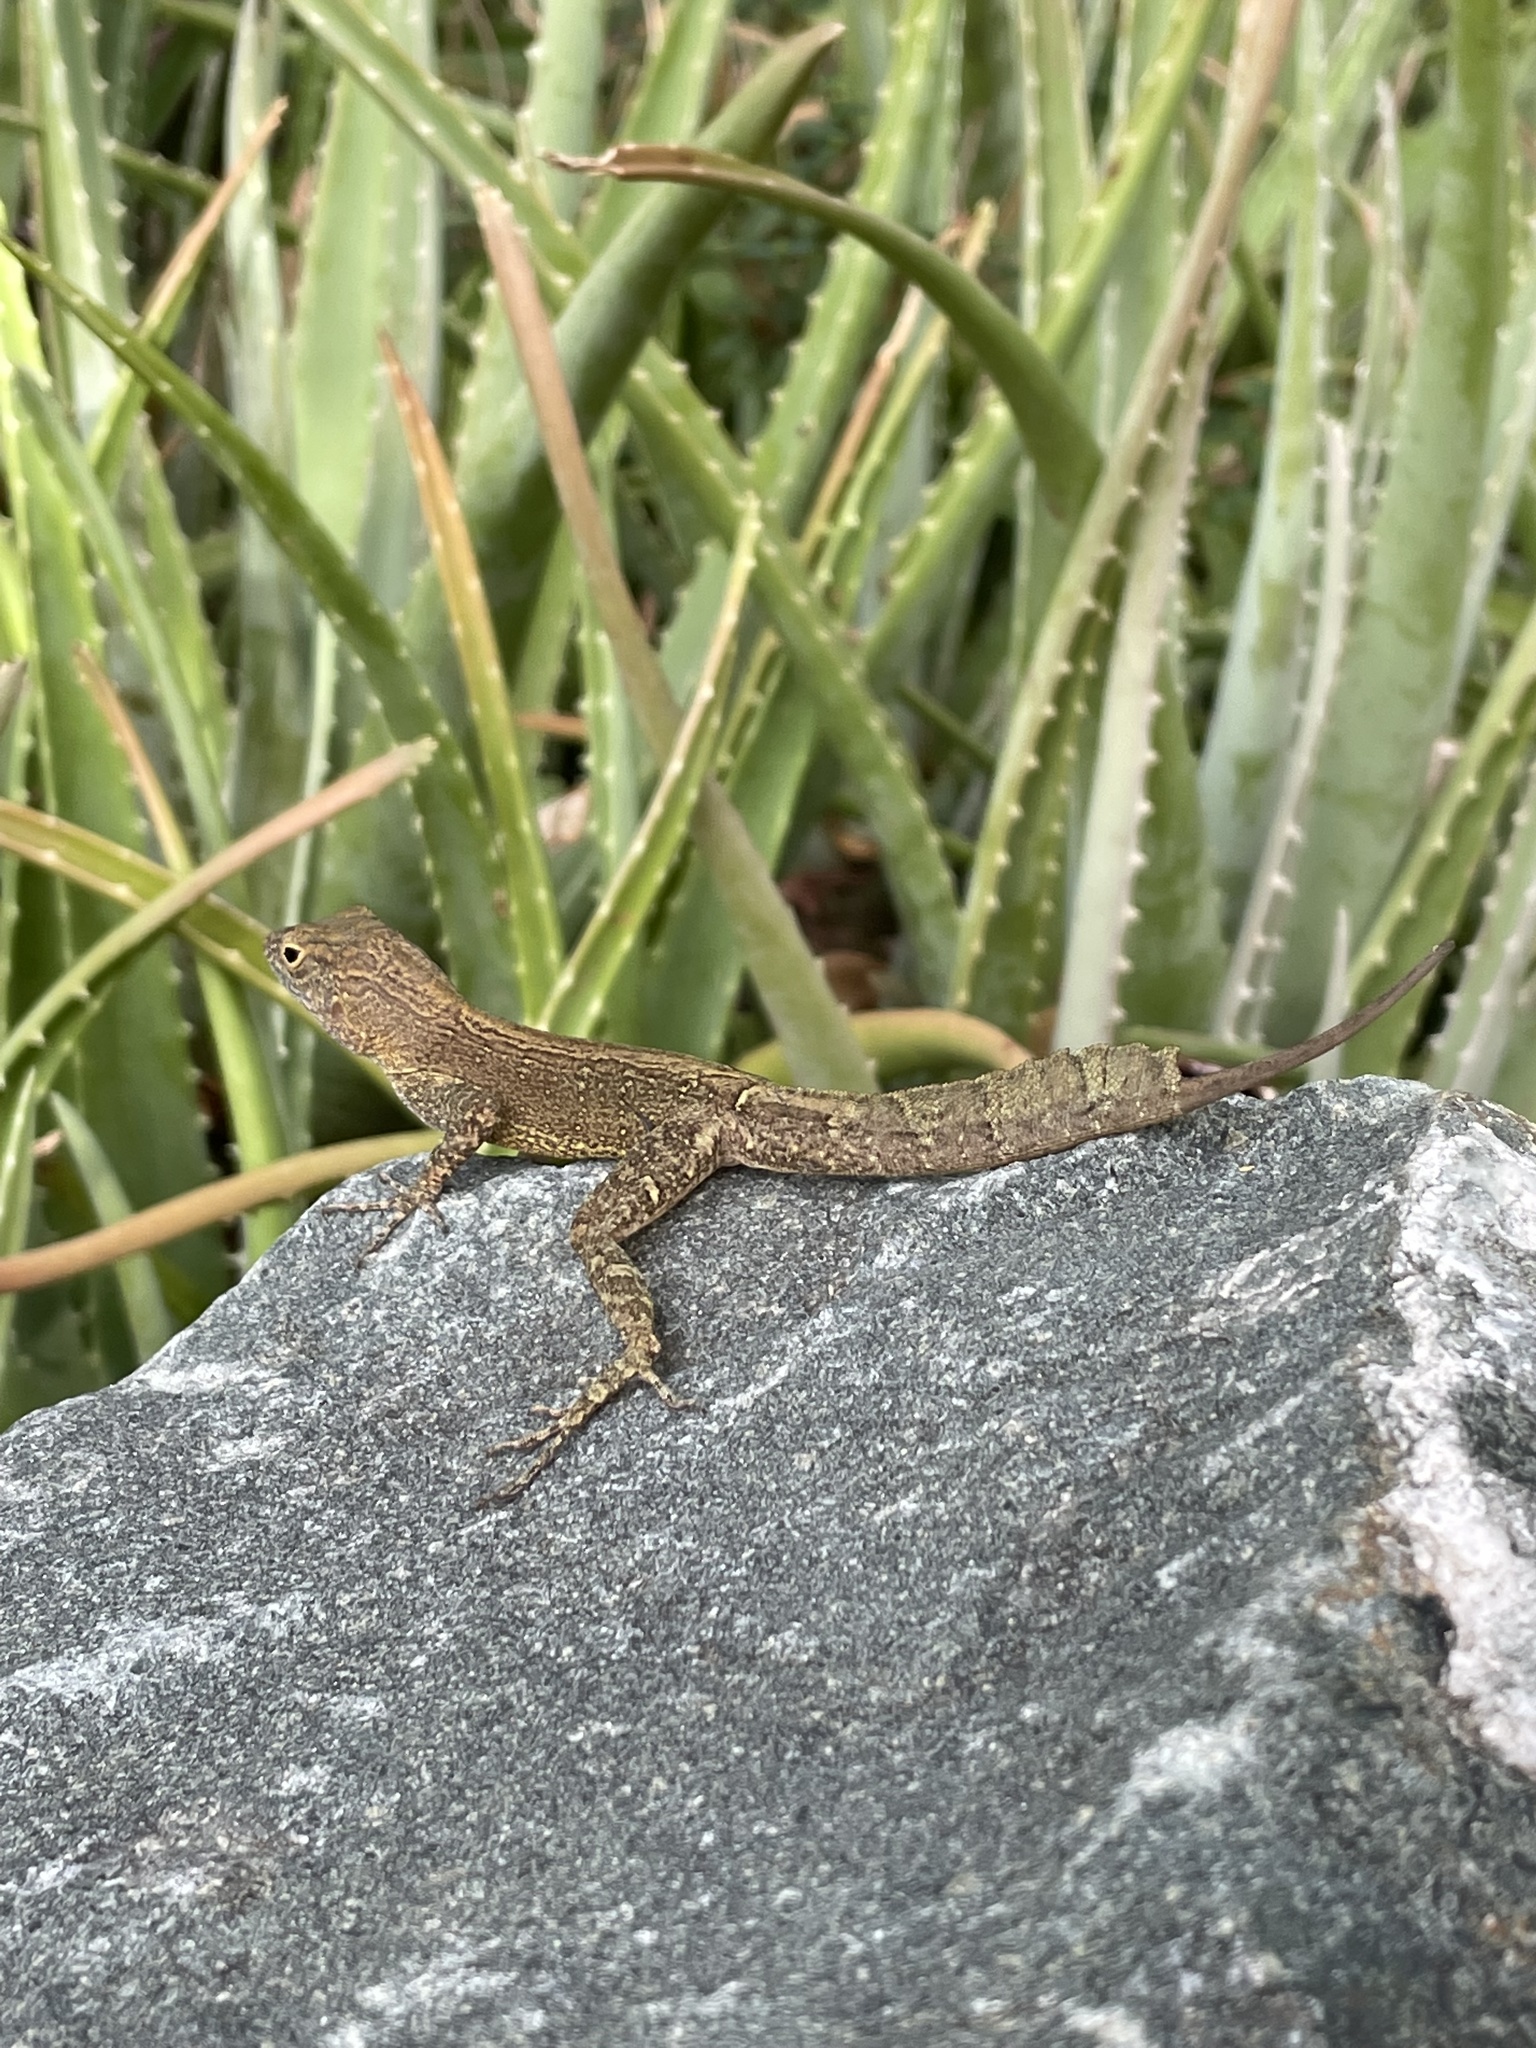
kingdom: Animalia
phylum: Chordata
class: Squamata
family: Dactyloidae
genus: Anolis
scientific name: Anolis cristatellus
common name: Crested anole
